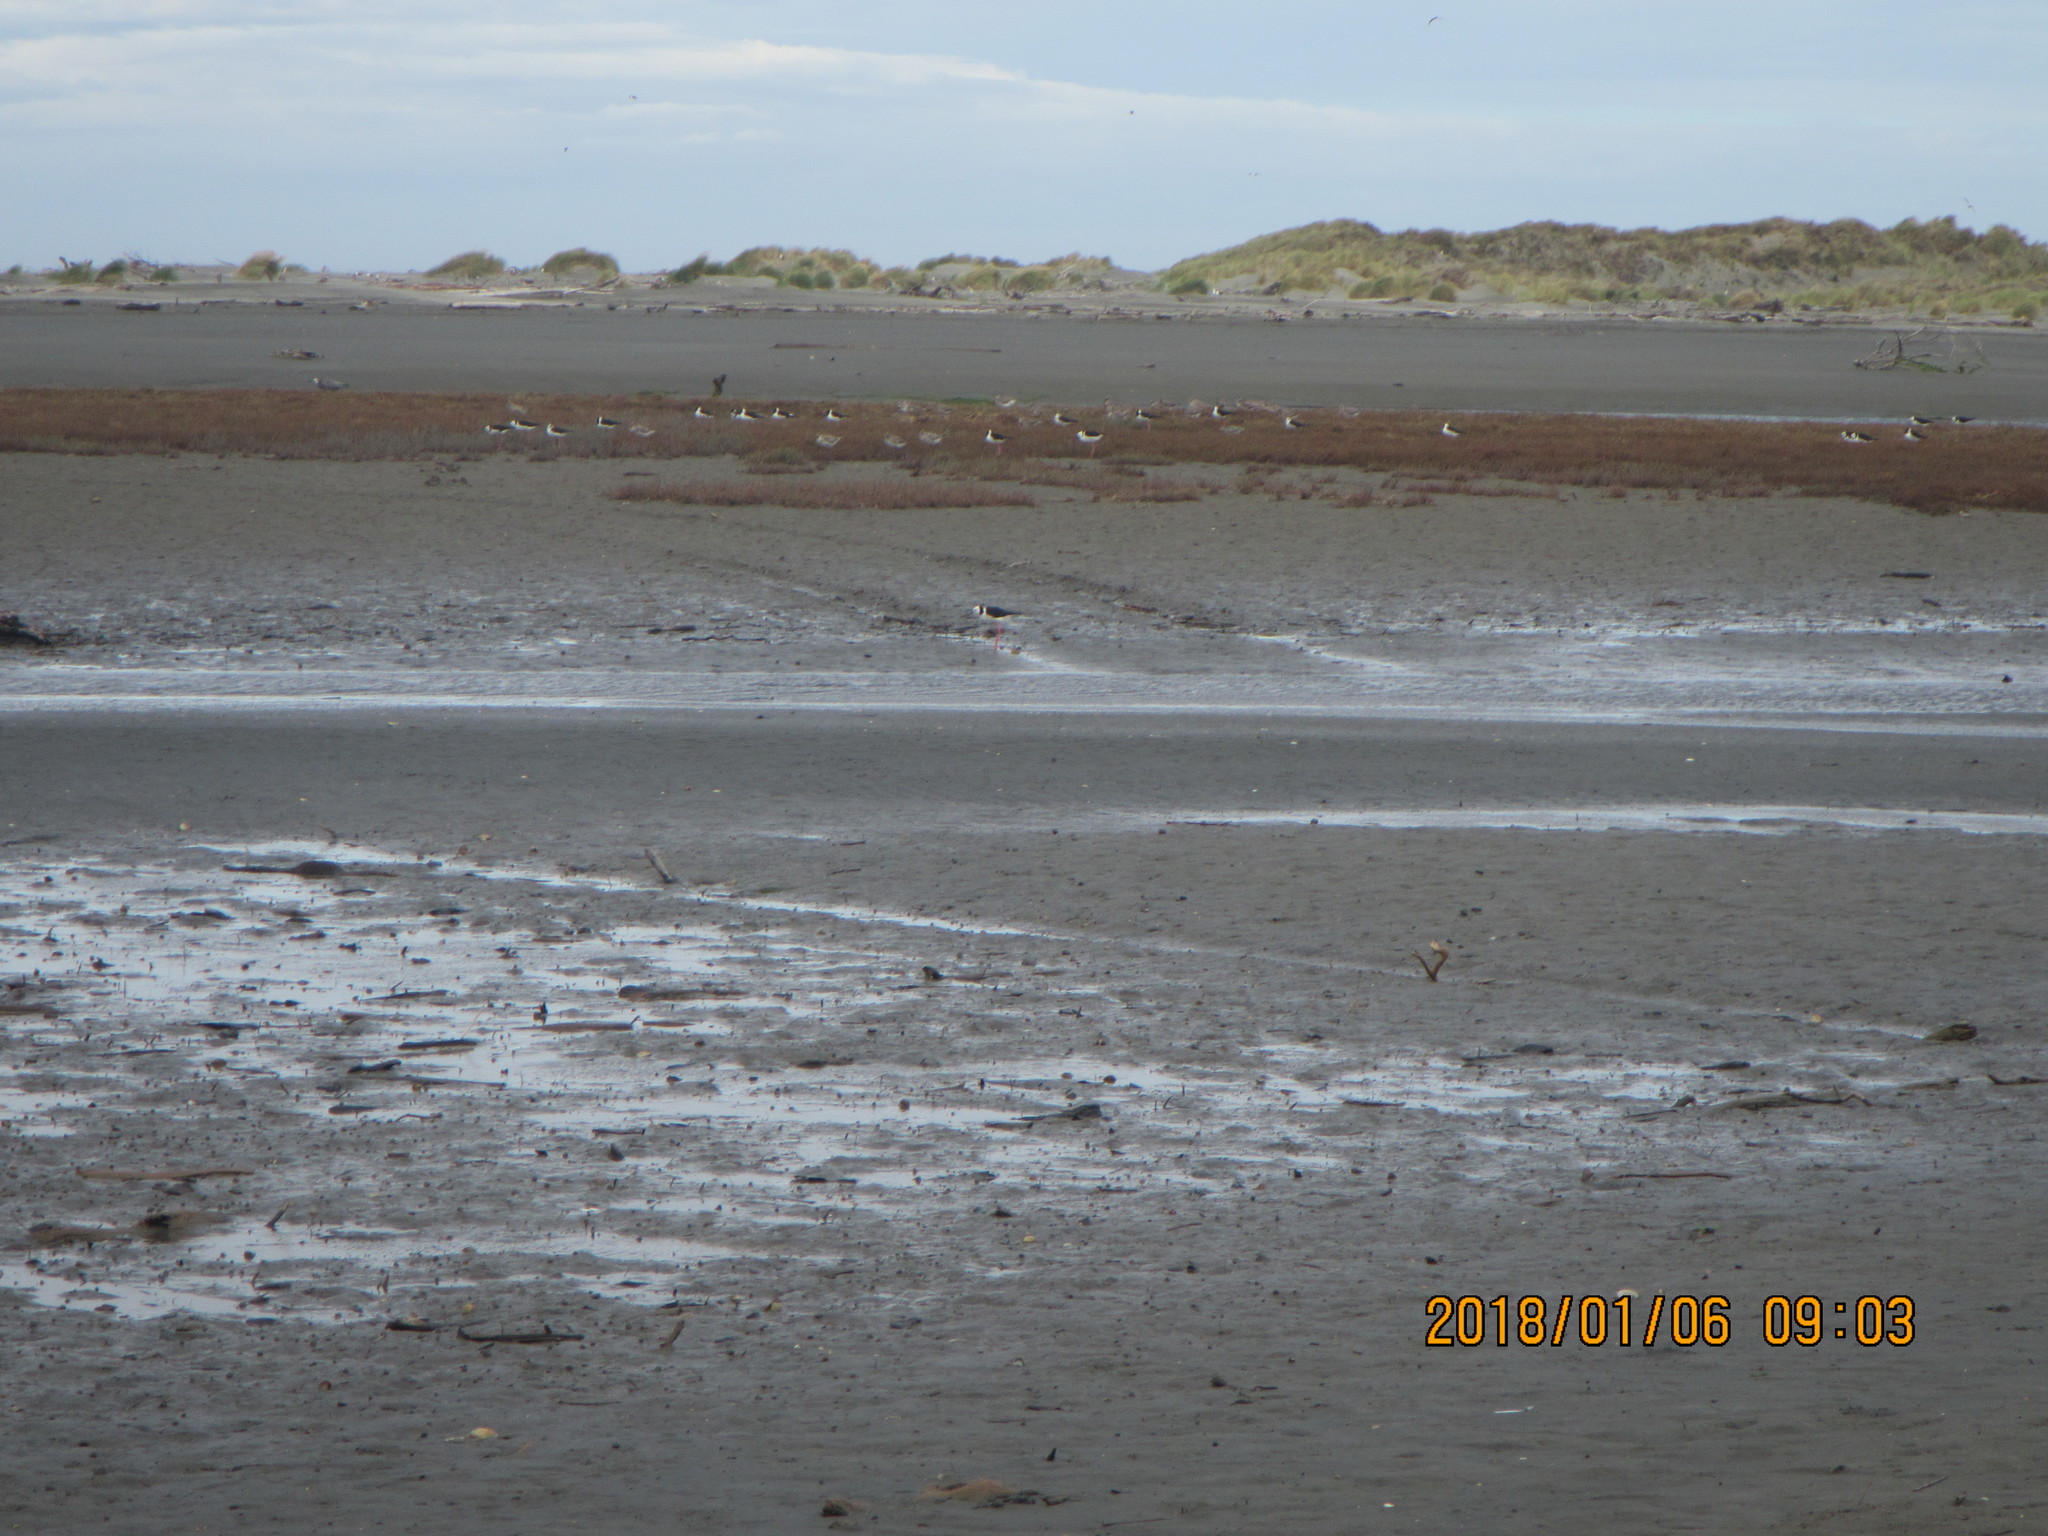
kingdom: Animalia
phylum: Chordata
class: Aves
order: Charadriiformes
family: Recurvirostridae
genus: Himantopus
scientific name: Himantopus leucocephalus
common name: White-headed stilt
